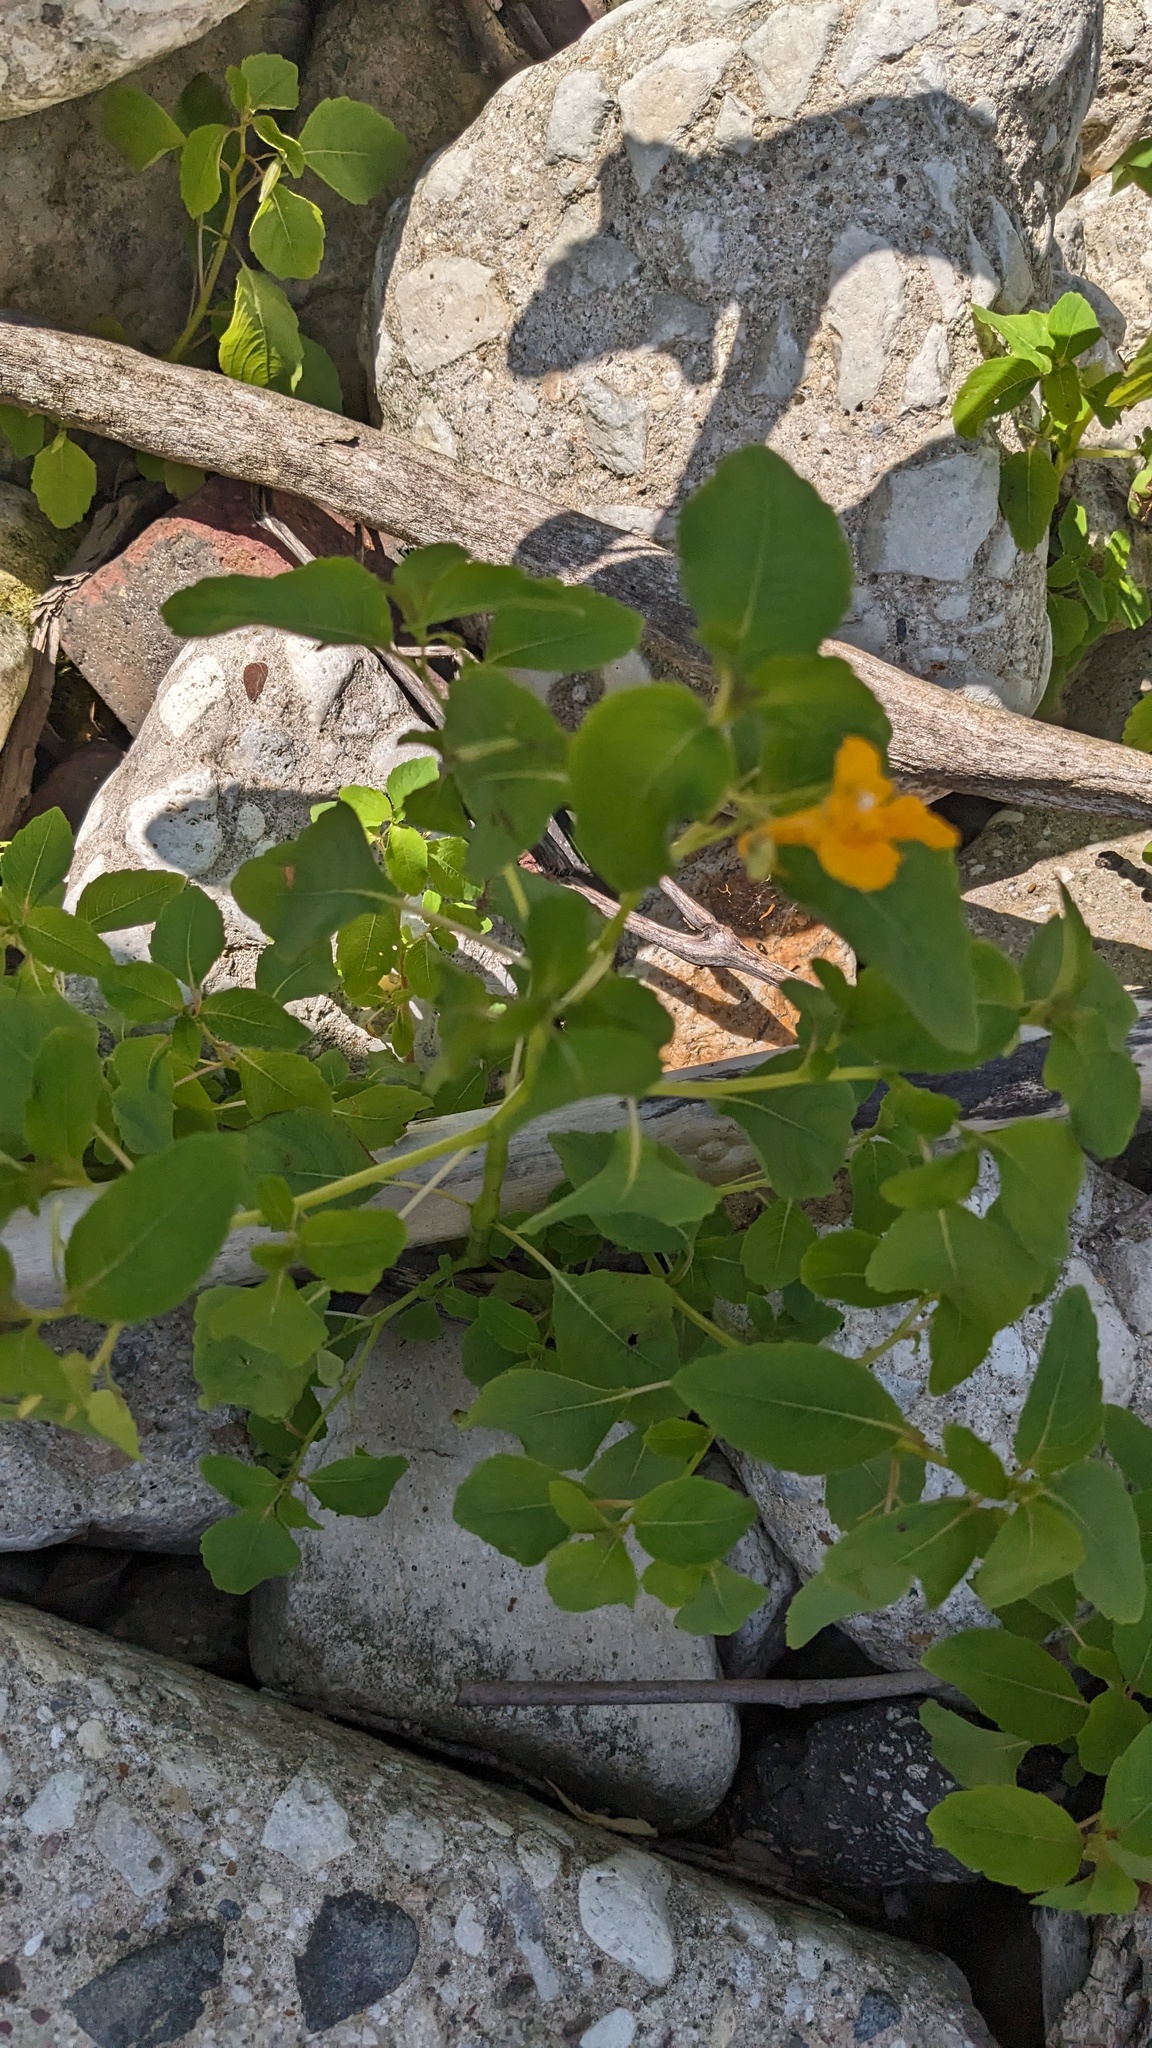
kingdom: Plantae
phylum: Tracheophyta
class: Magnoliopsida
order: Ericales
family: Balsaminaceae
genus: Impatiens
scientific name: Impatiens capensis
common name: Orange balsam
